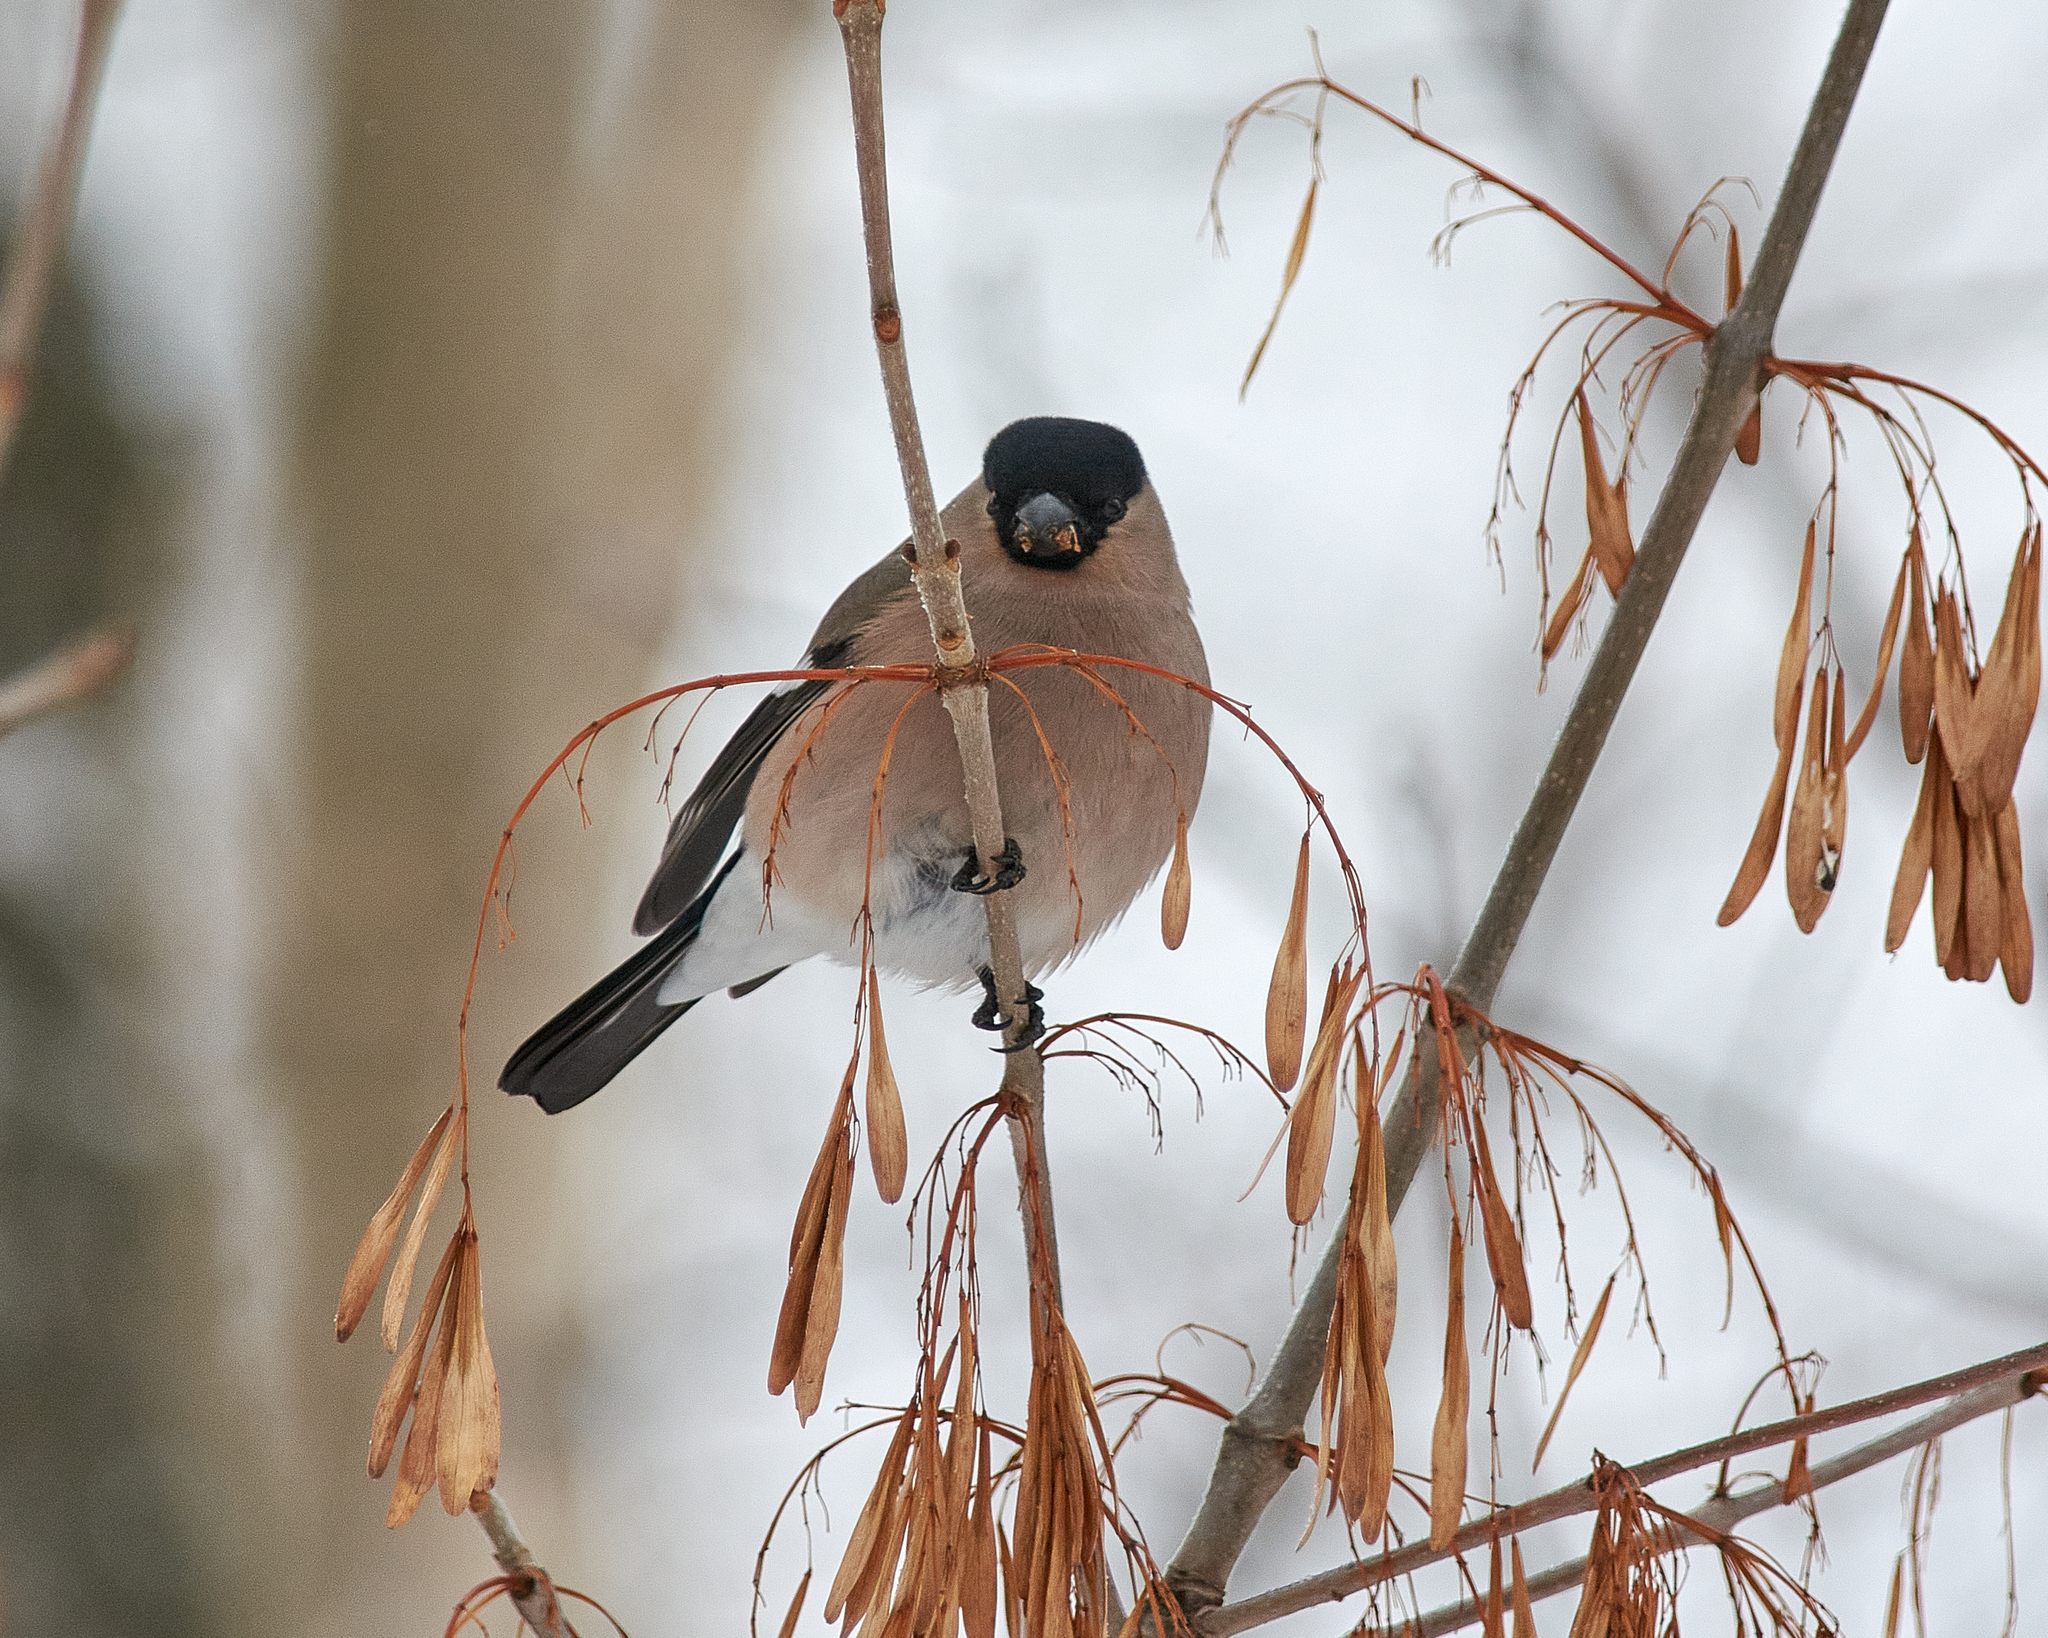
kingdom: Animalia
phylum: Chordata
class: Aves
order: Passeriformes
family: Fringillidae
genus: Pyrrhula
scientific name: Pyrrhula pyrrhula
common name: Eurasian bullfinch
